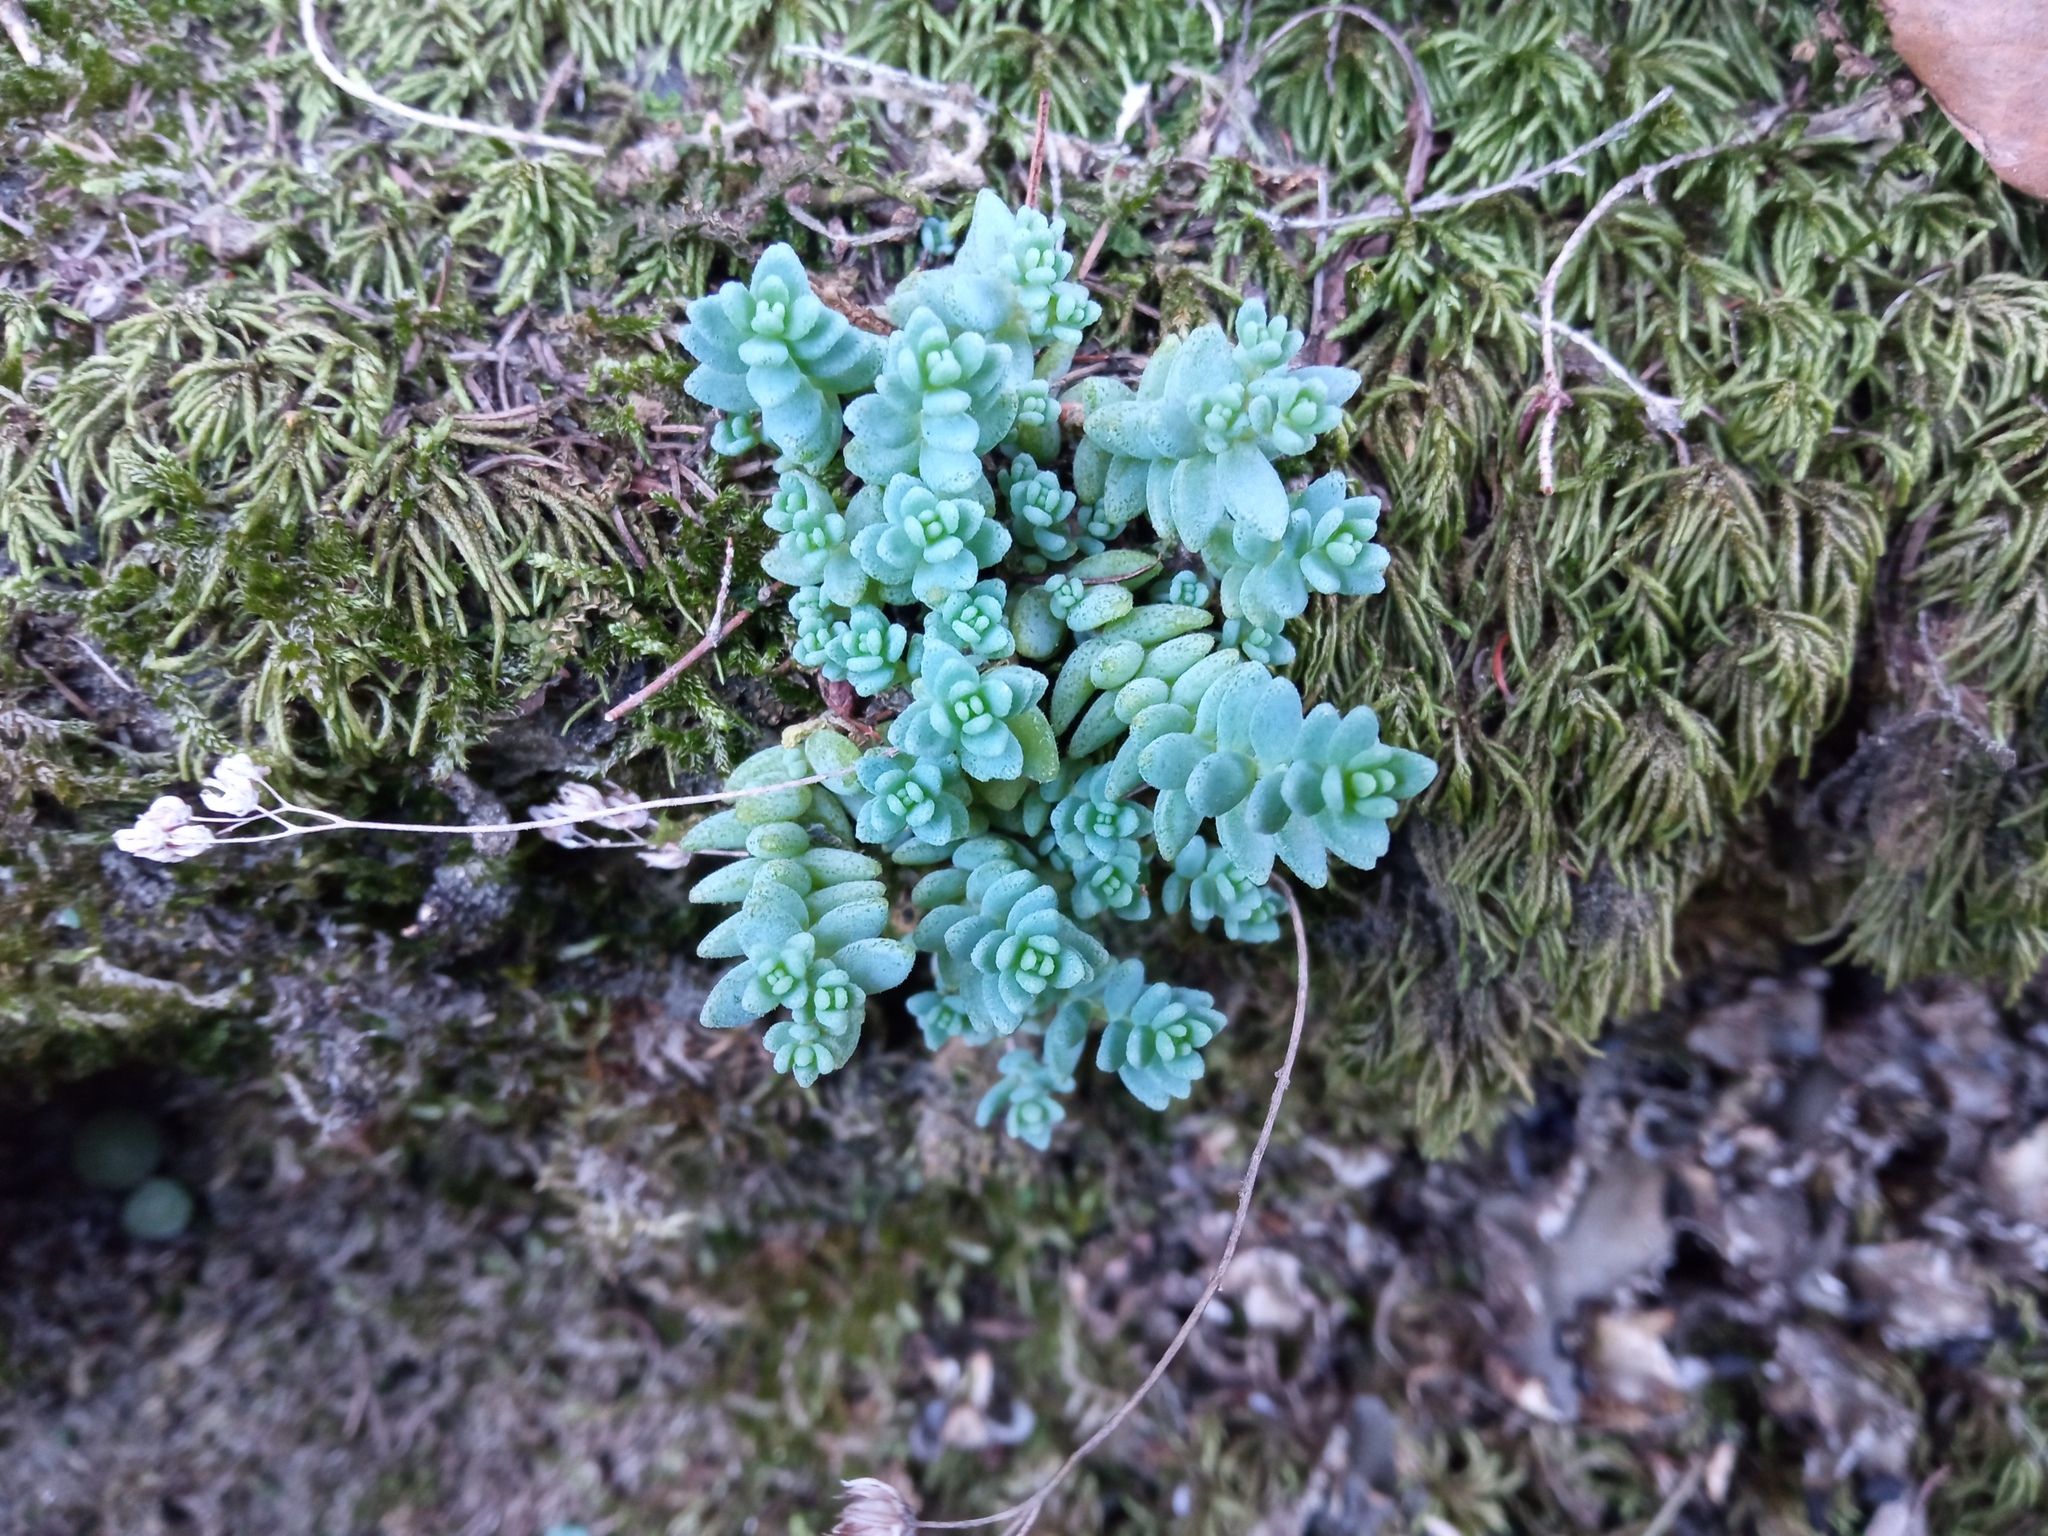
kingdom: Plantae
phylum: Tracheophyta
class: Magnoliopsida
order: Saxifragales
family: Crassulaceae
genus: Sedum
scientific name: Sedum dasyphyllum
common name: Thick-leaf stonecrop
